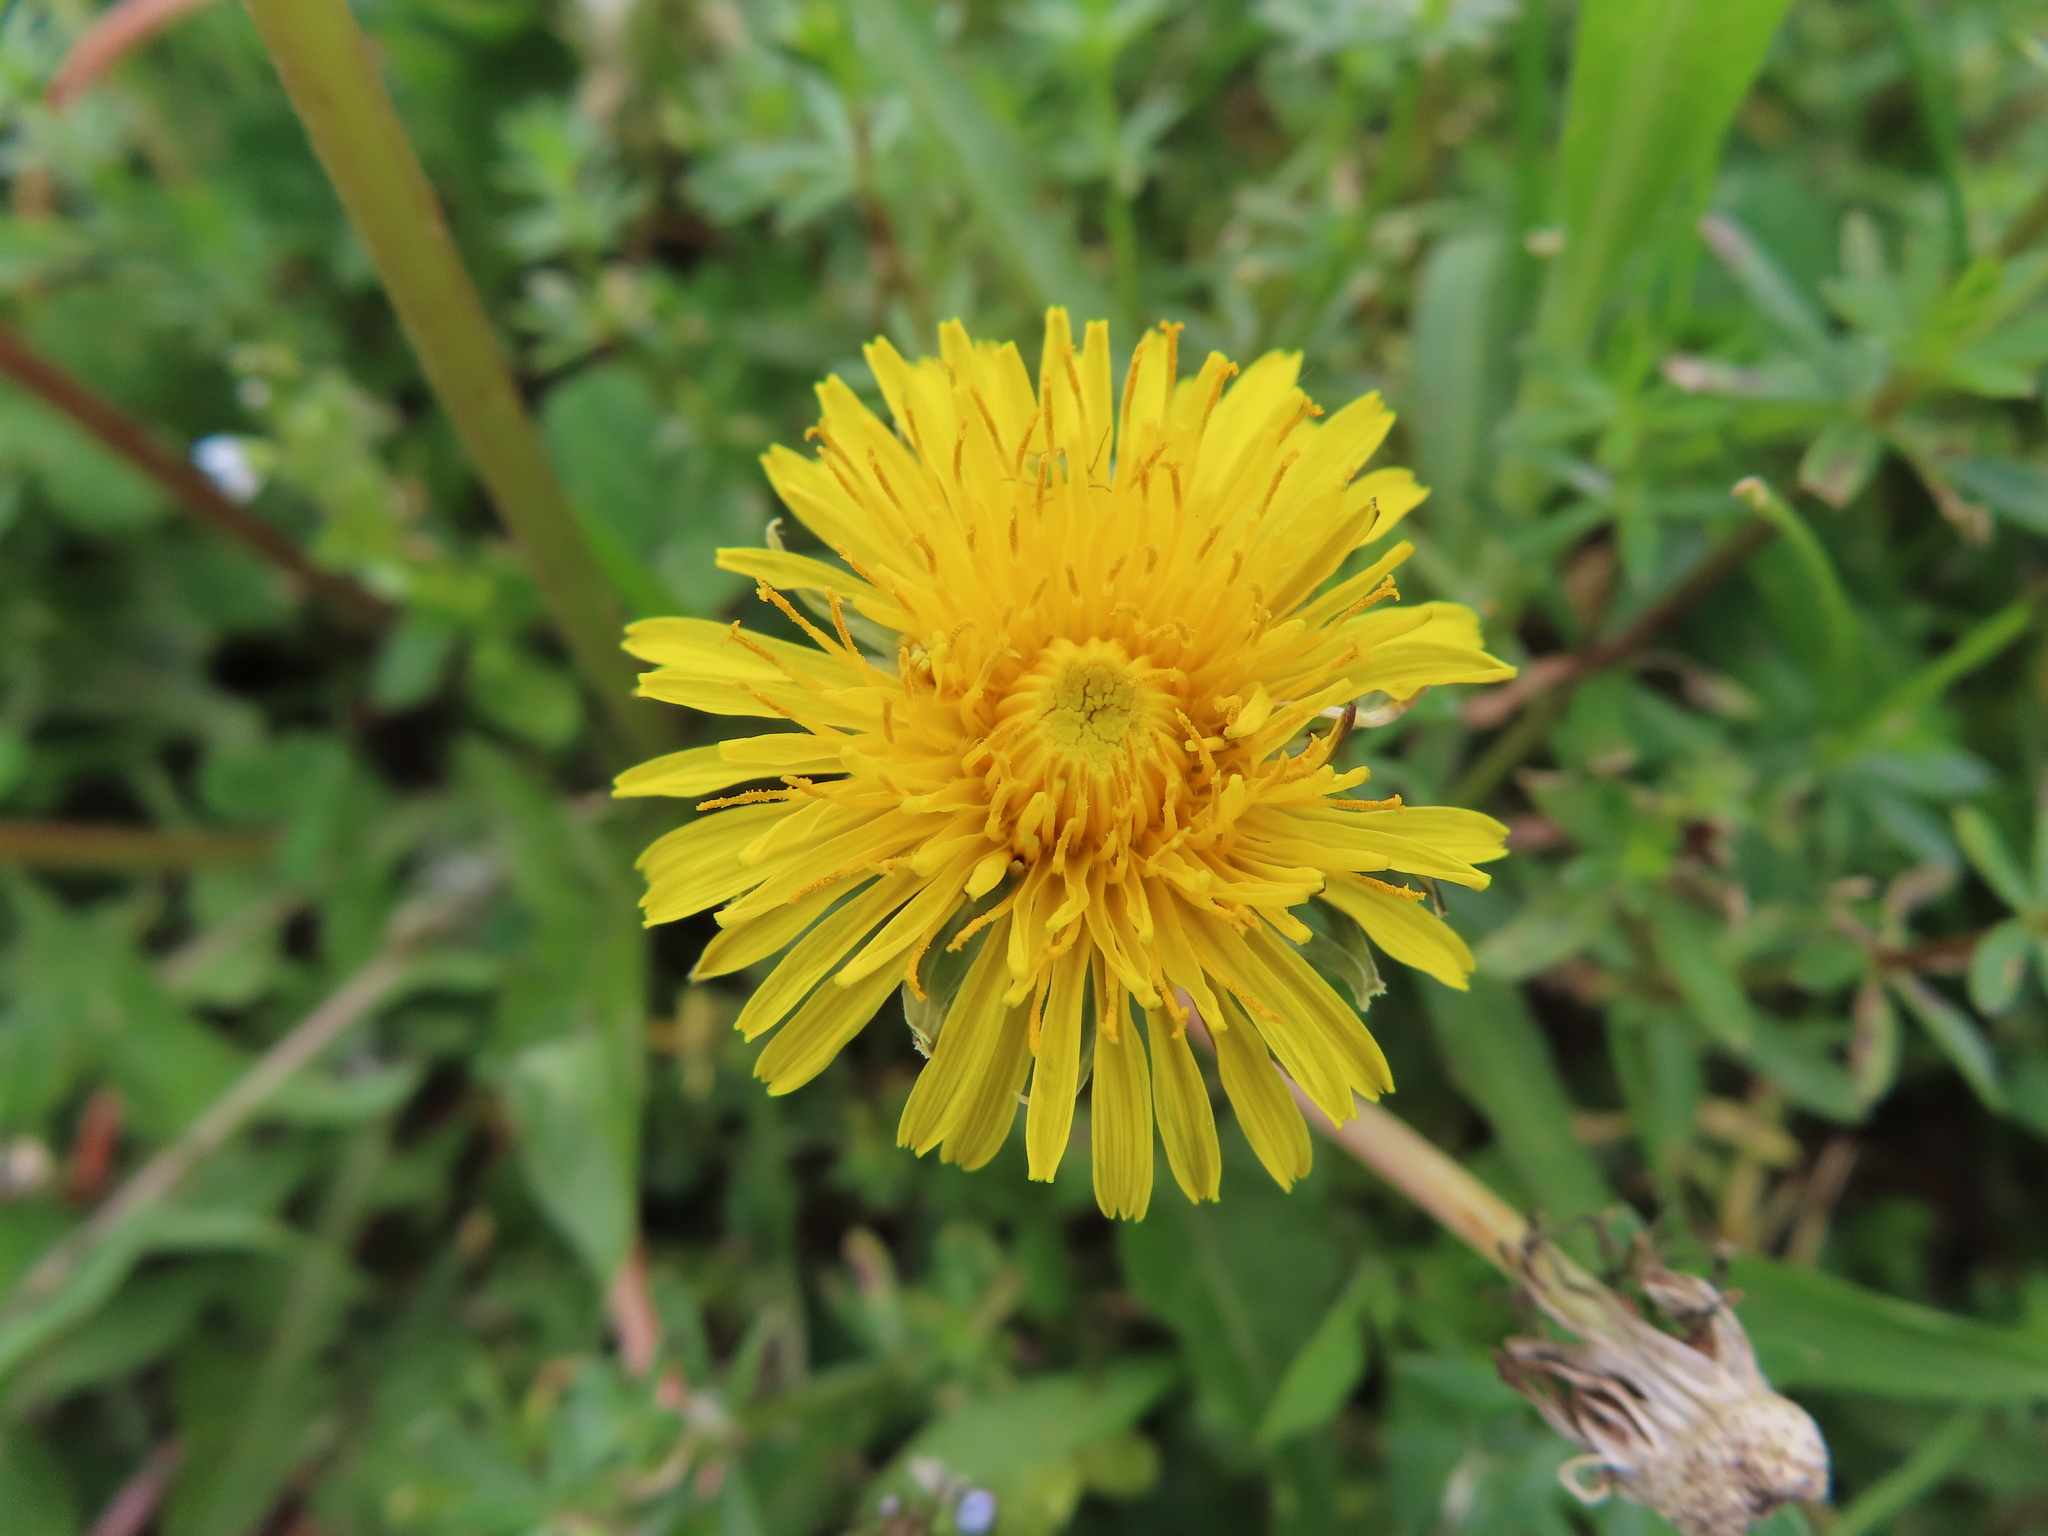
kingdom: Plantae
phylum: Tracheophyta
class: Magnoliopsida
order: Asterales
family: Asteraceae
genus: Taraxacum
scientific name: Taraxacum
